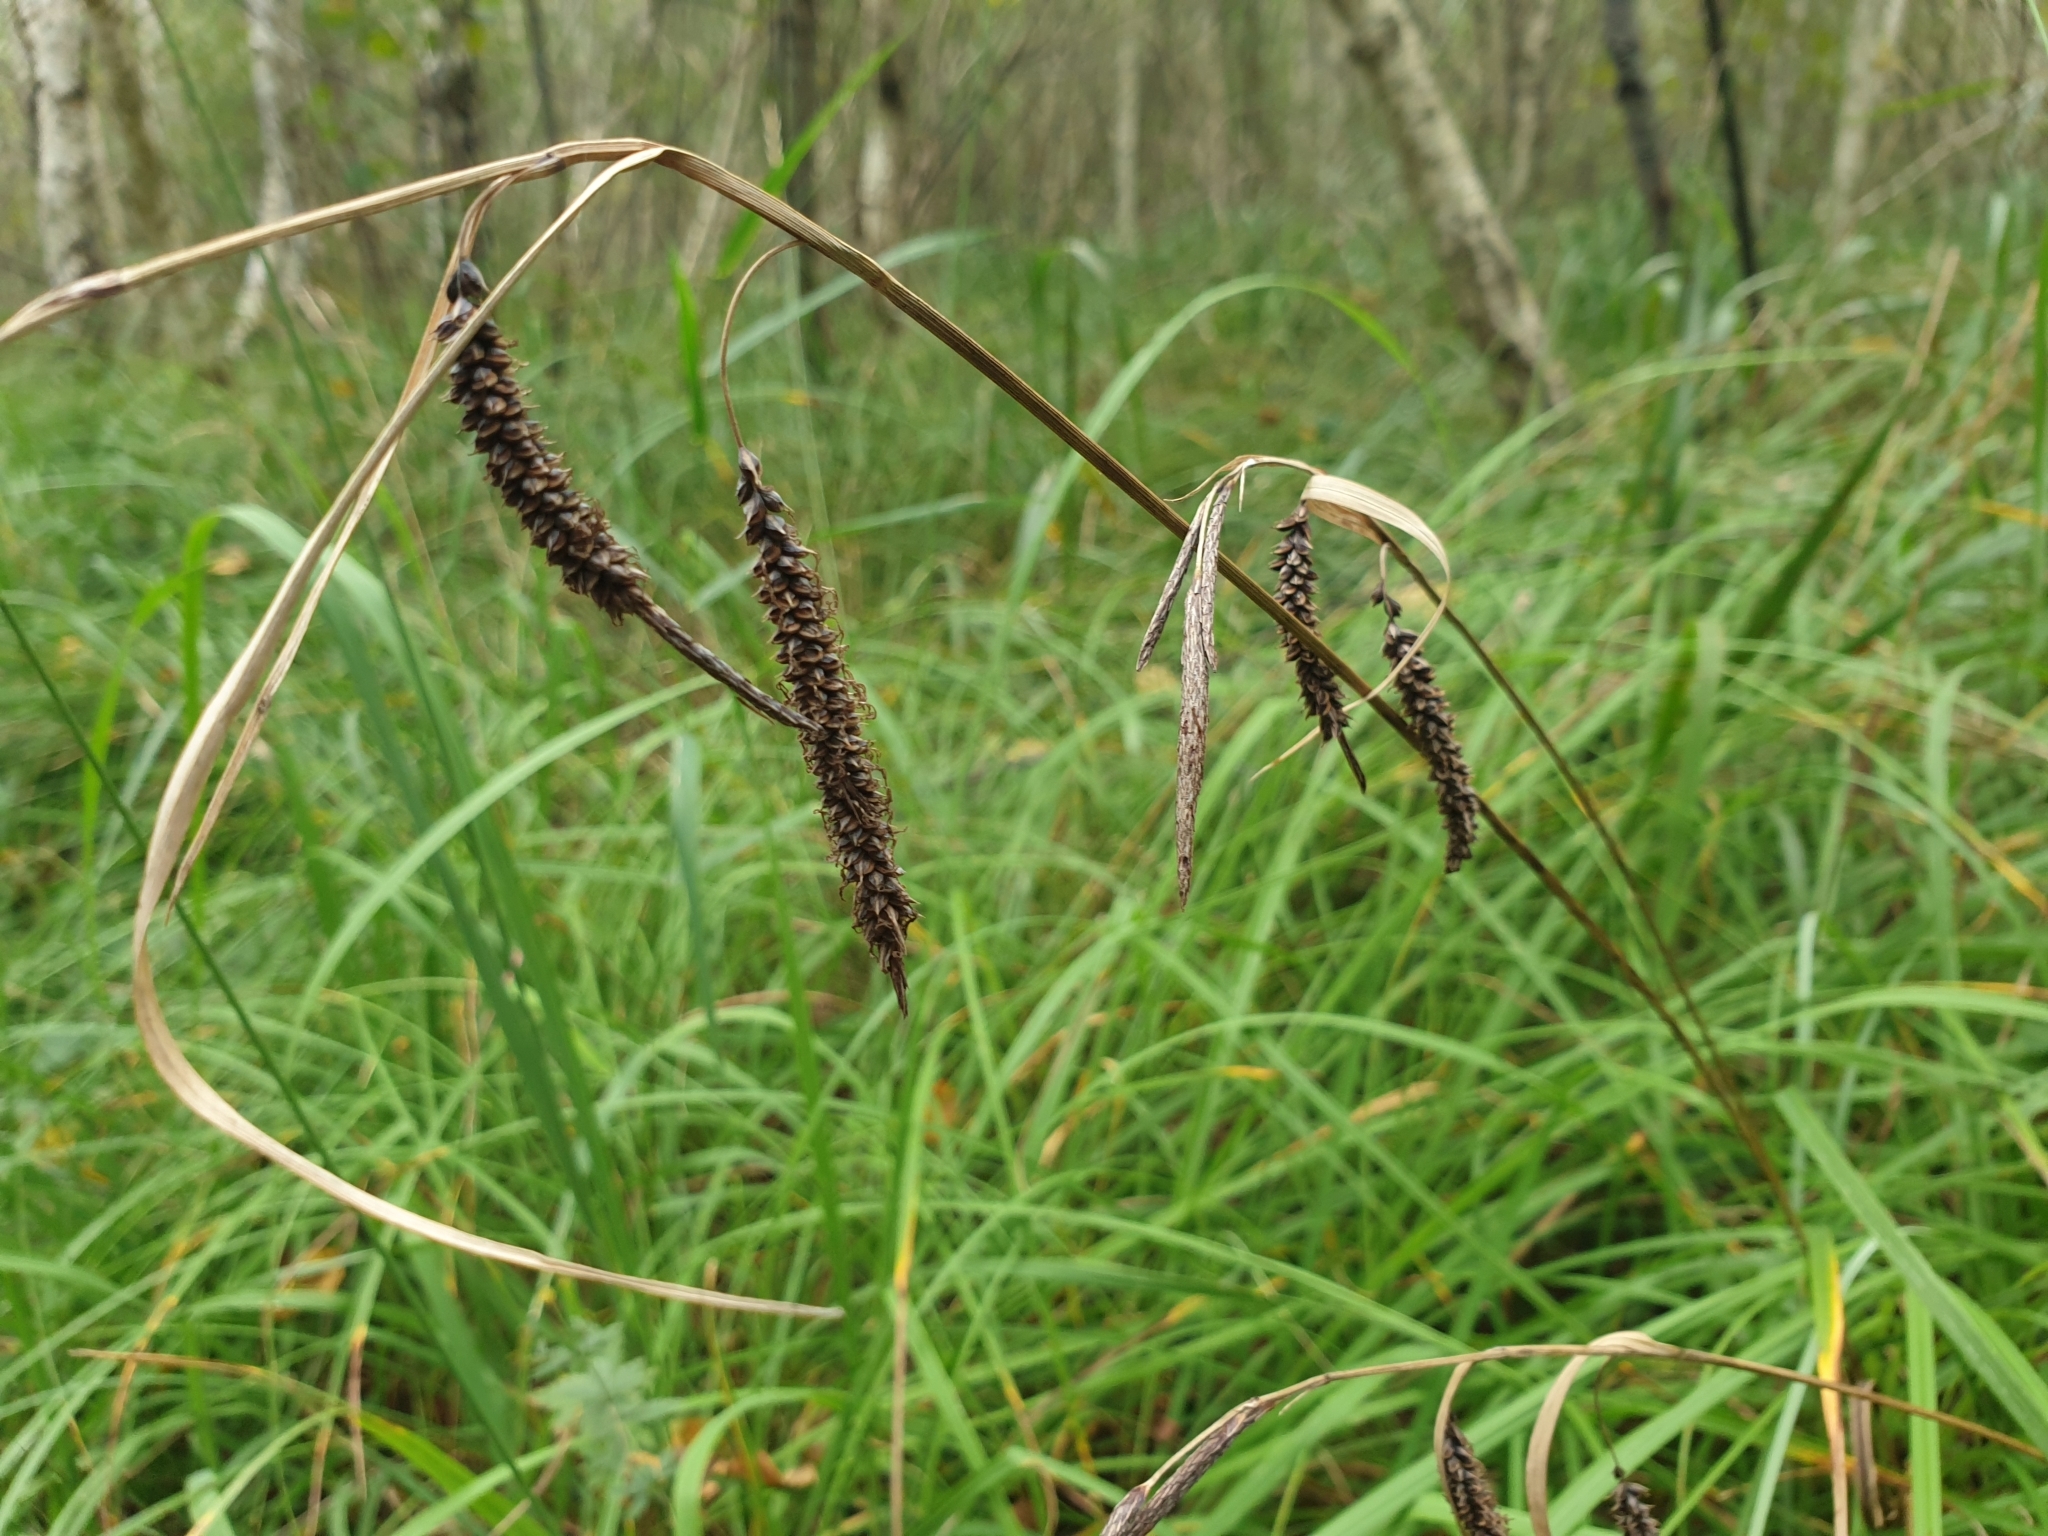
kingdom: Plantae
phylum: Tracheophyta
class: Liliopsida
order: Poales
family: Cyperaceae
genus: Carex
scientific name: Carex pendula
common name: Pendulous sedge
